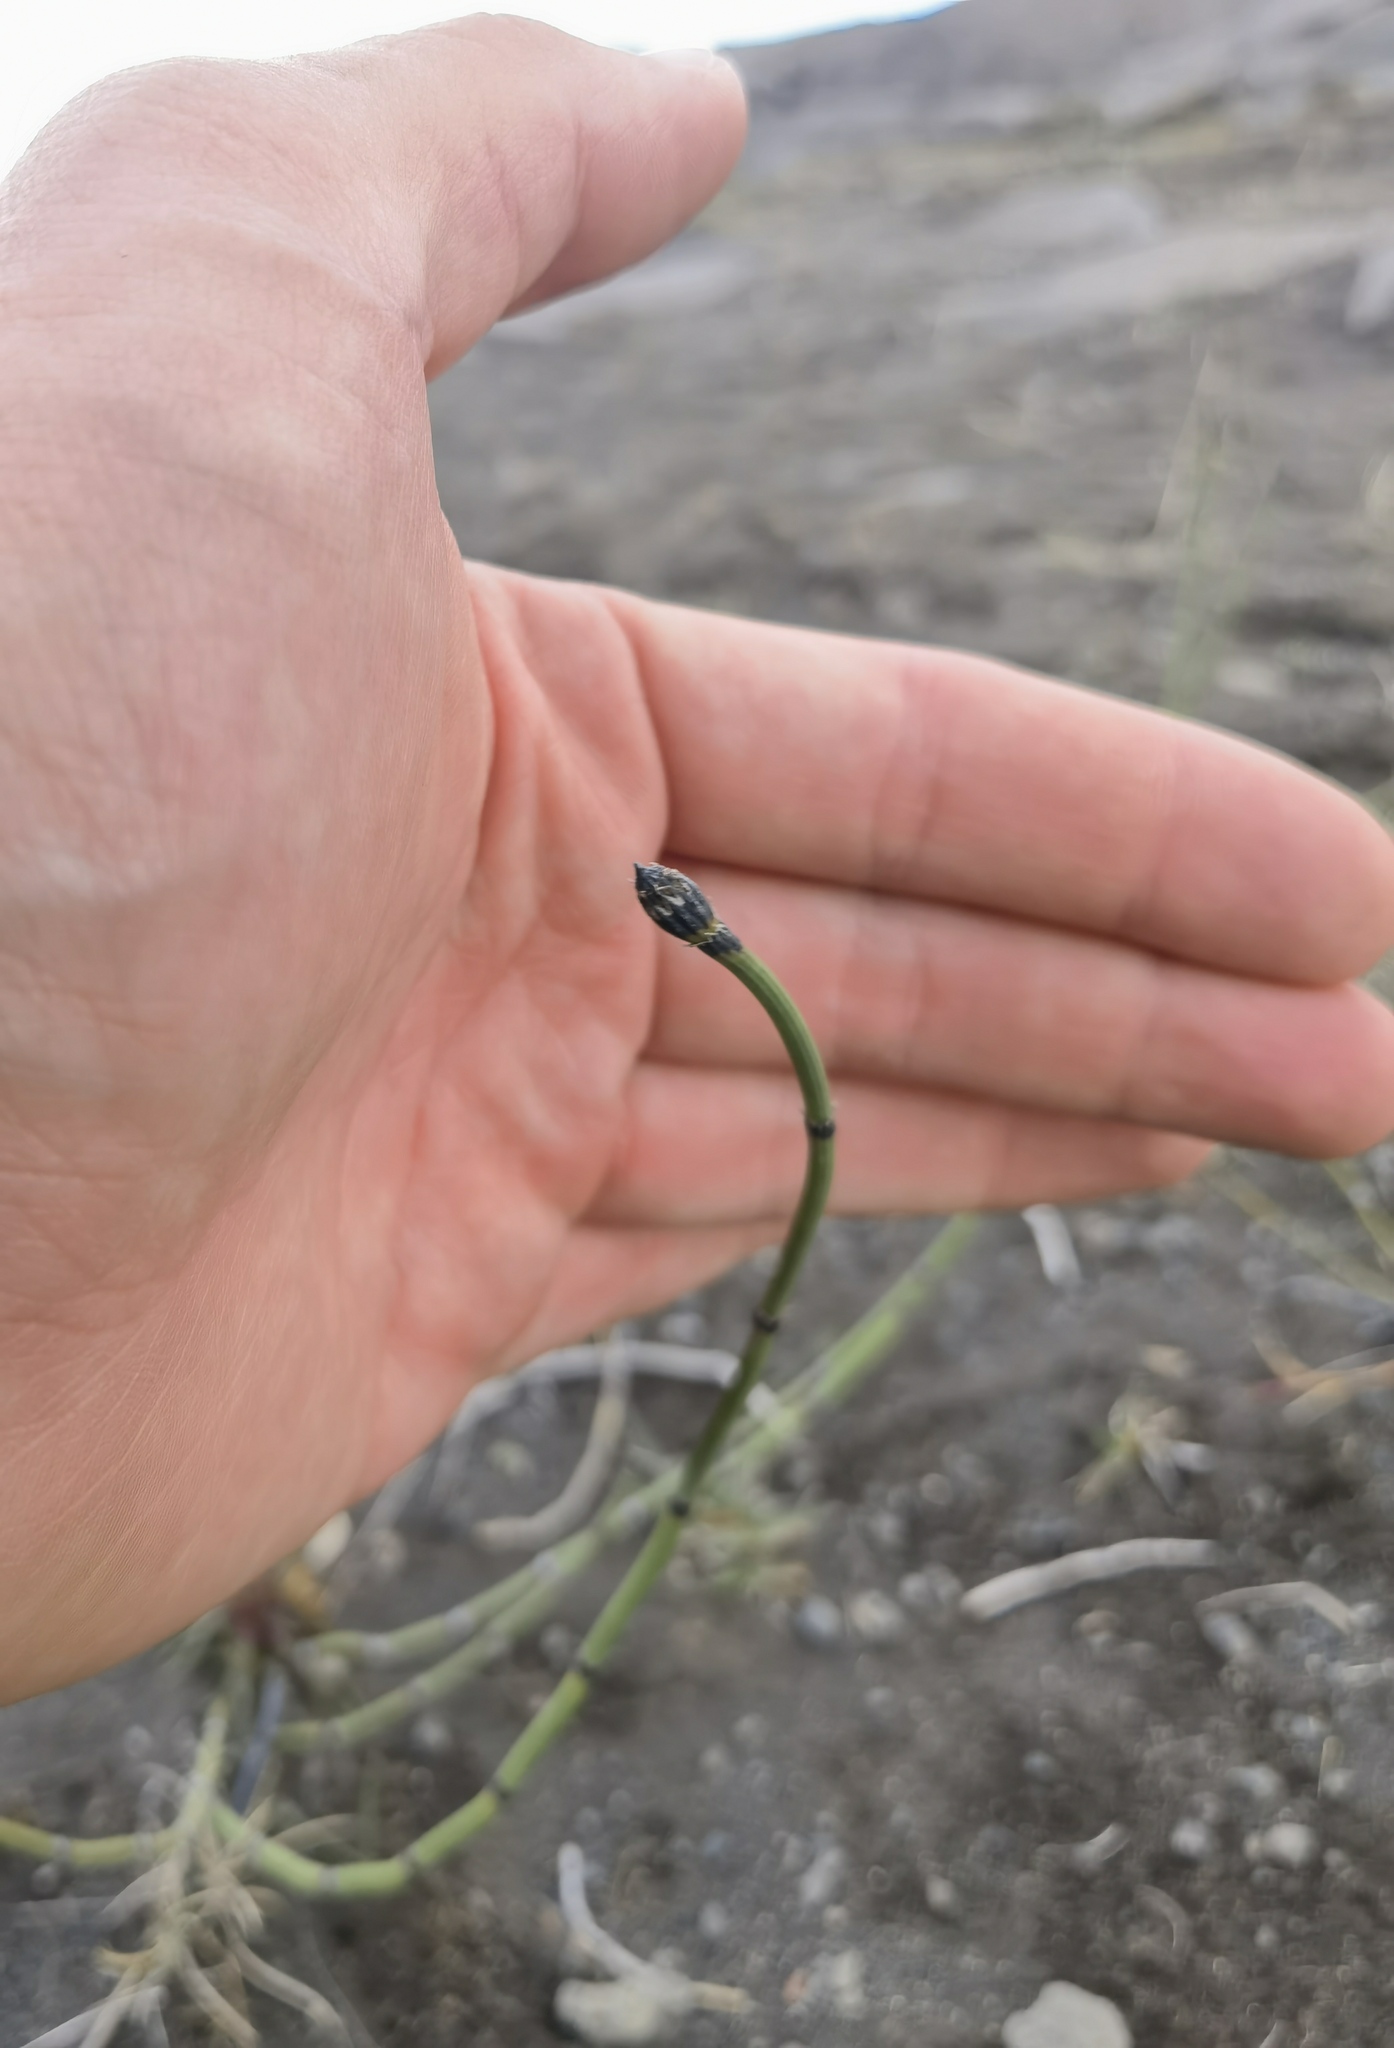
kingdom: Plantae
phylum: Tracheophyta
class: Polypodiopsida
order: Equisetales
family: Equisetaceae
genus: Equisetum
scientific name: Equisetum variegatum
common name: Variegated horsetail
